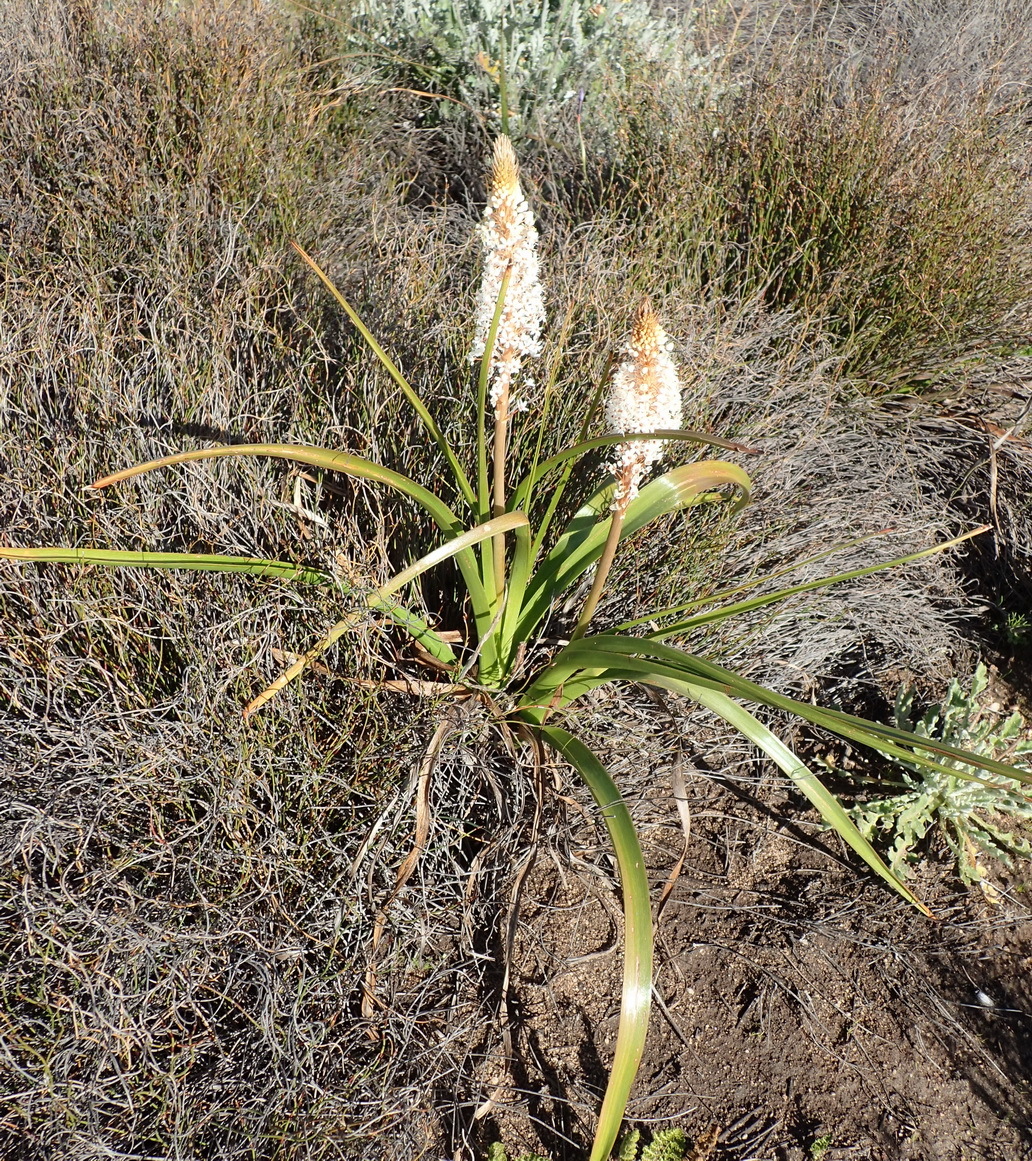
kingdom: Plantae
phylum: Tracheophyta
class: Liliopsida
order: Asparagales
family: Asphodelaceae
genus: Bulbinella
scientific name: Bulbinella latifolia
